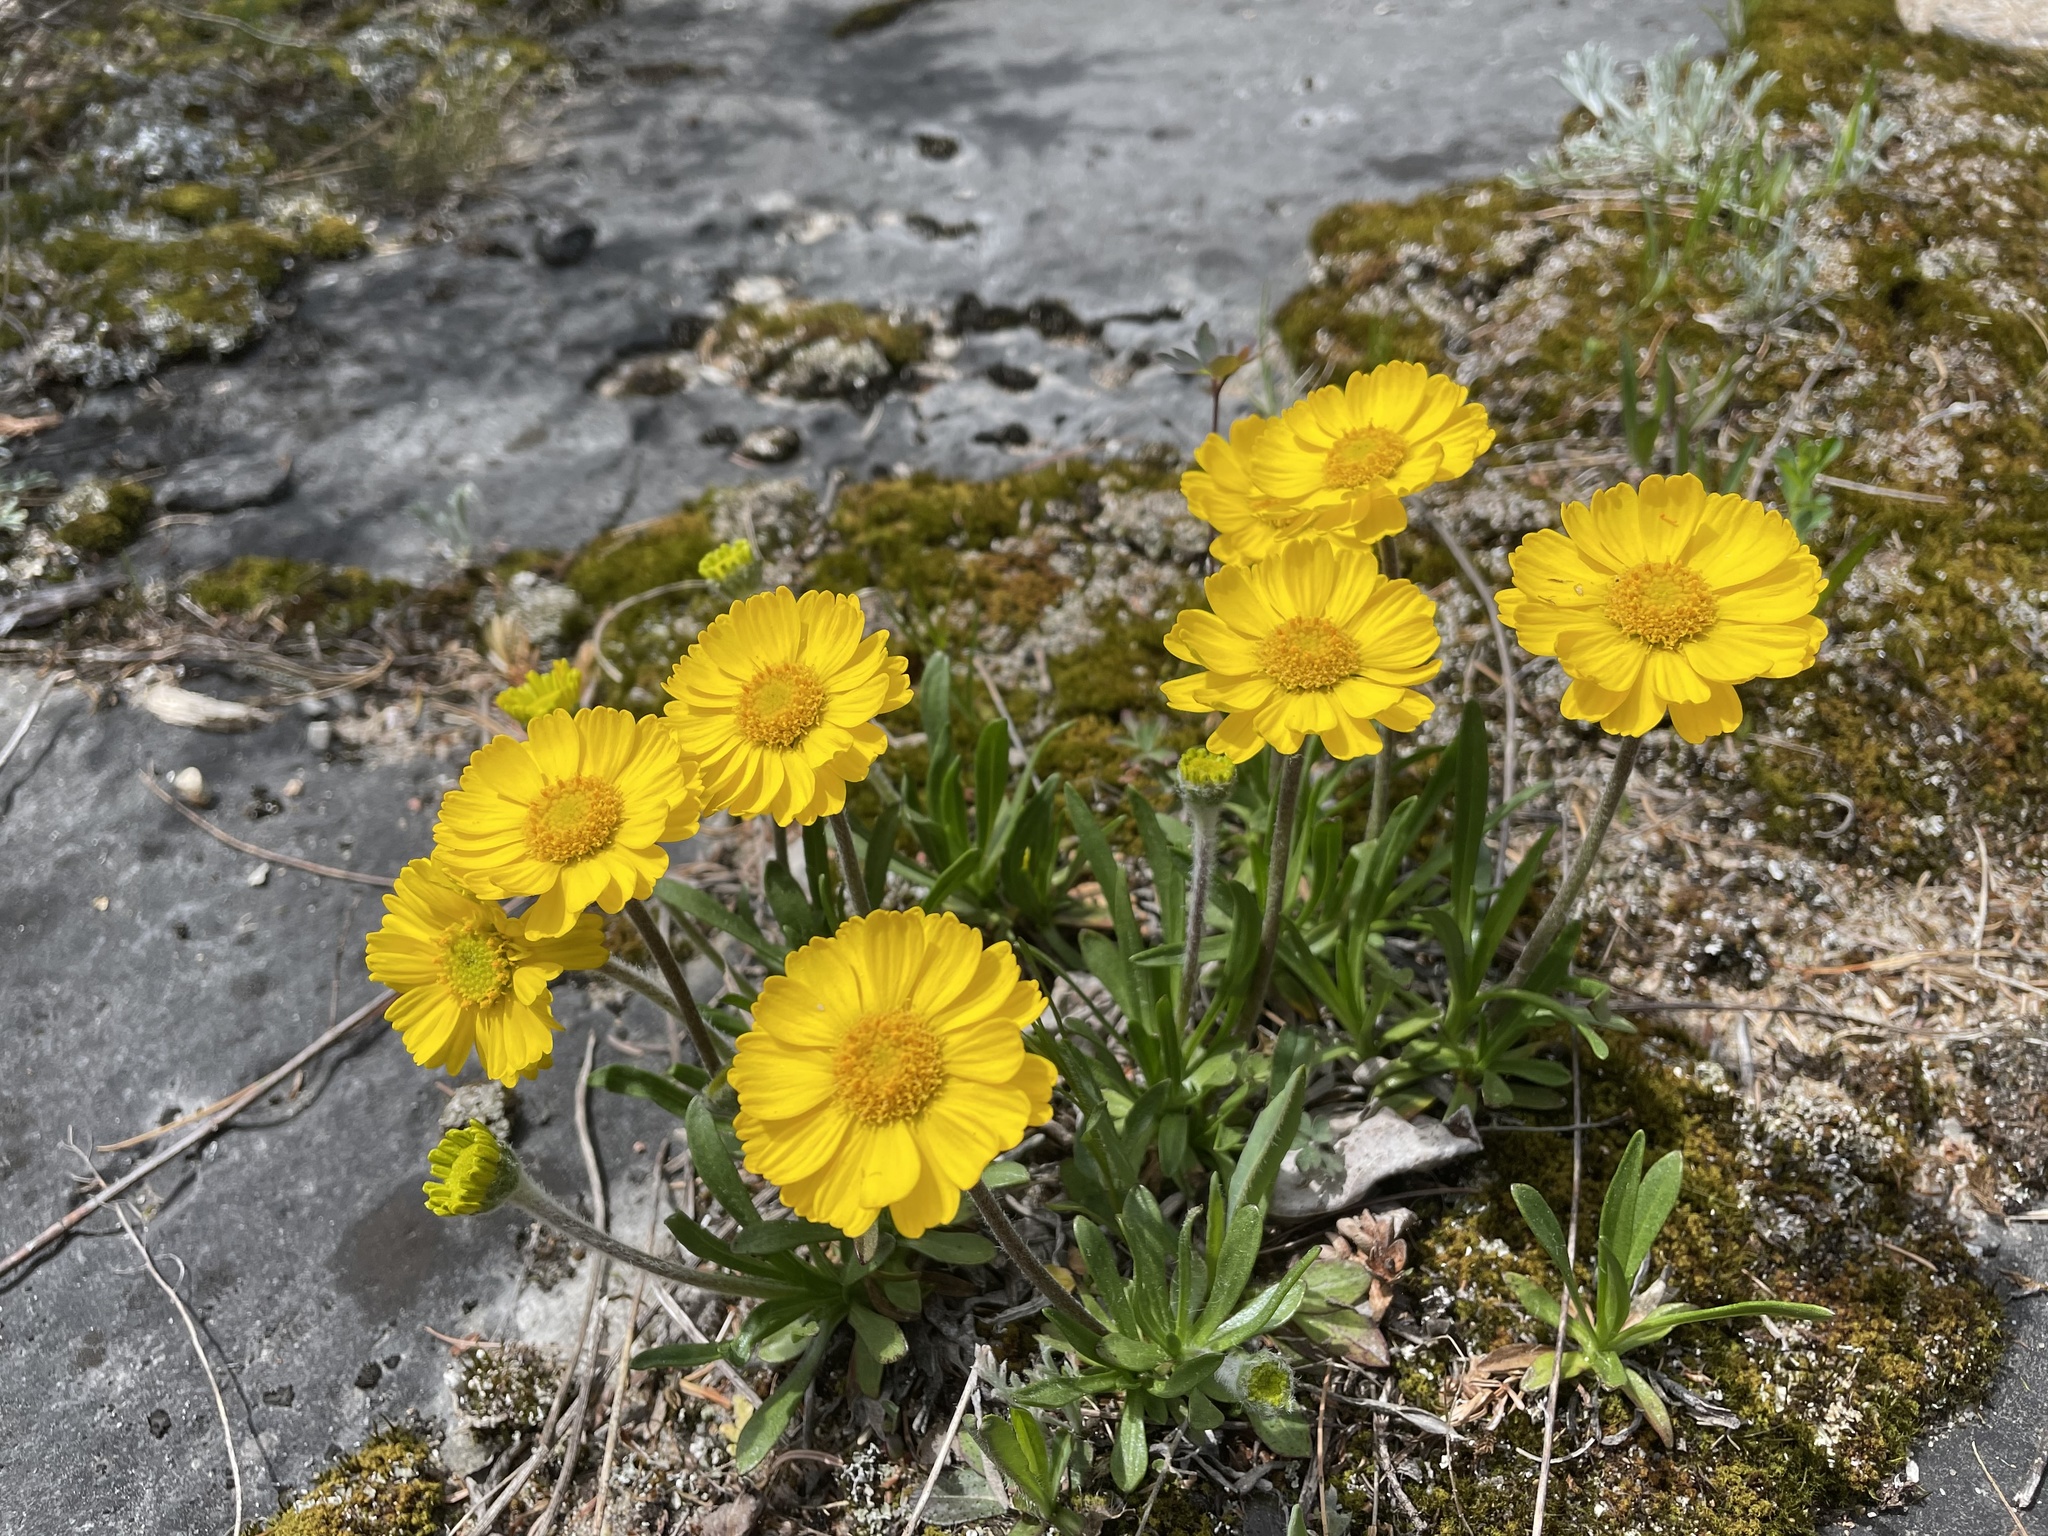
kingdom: Plantae
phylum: Tracheophyta
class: Magnoliopsida
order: Asterales
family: Asteraceae
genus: Tetraneuris
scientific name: Tetraneuris herbacea
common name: Lakeside daisy
